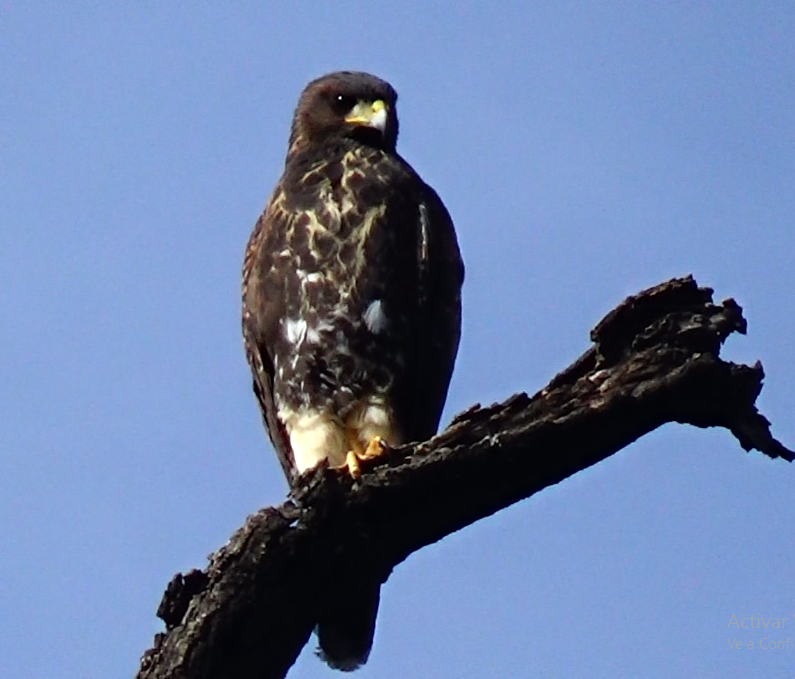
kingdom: Animalia
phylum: Chordata
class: Aves
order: Accipitriformes
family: Accipitridae
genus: Parabuteo
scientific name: Parabuteo unicinctus
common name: Harris's hawk
